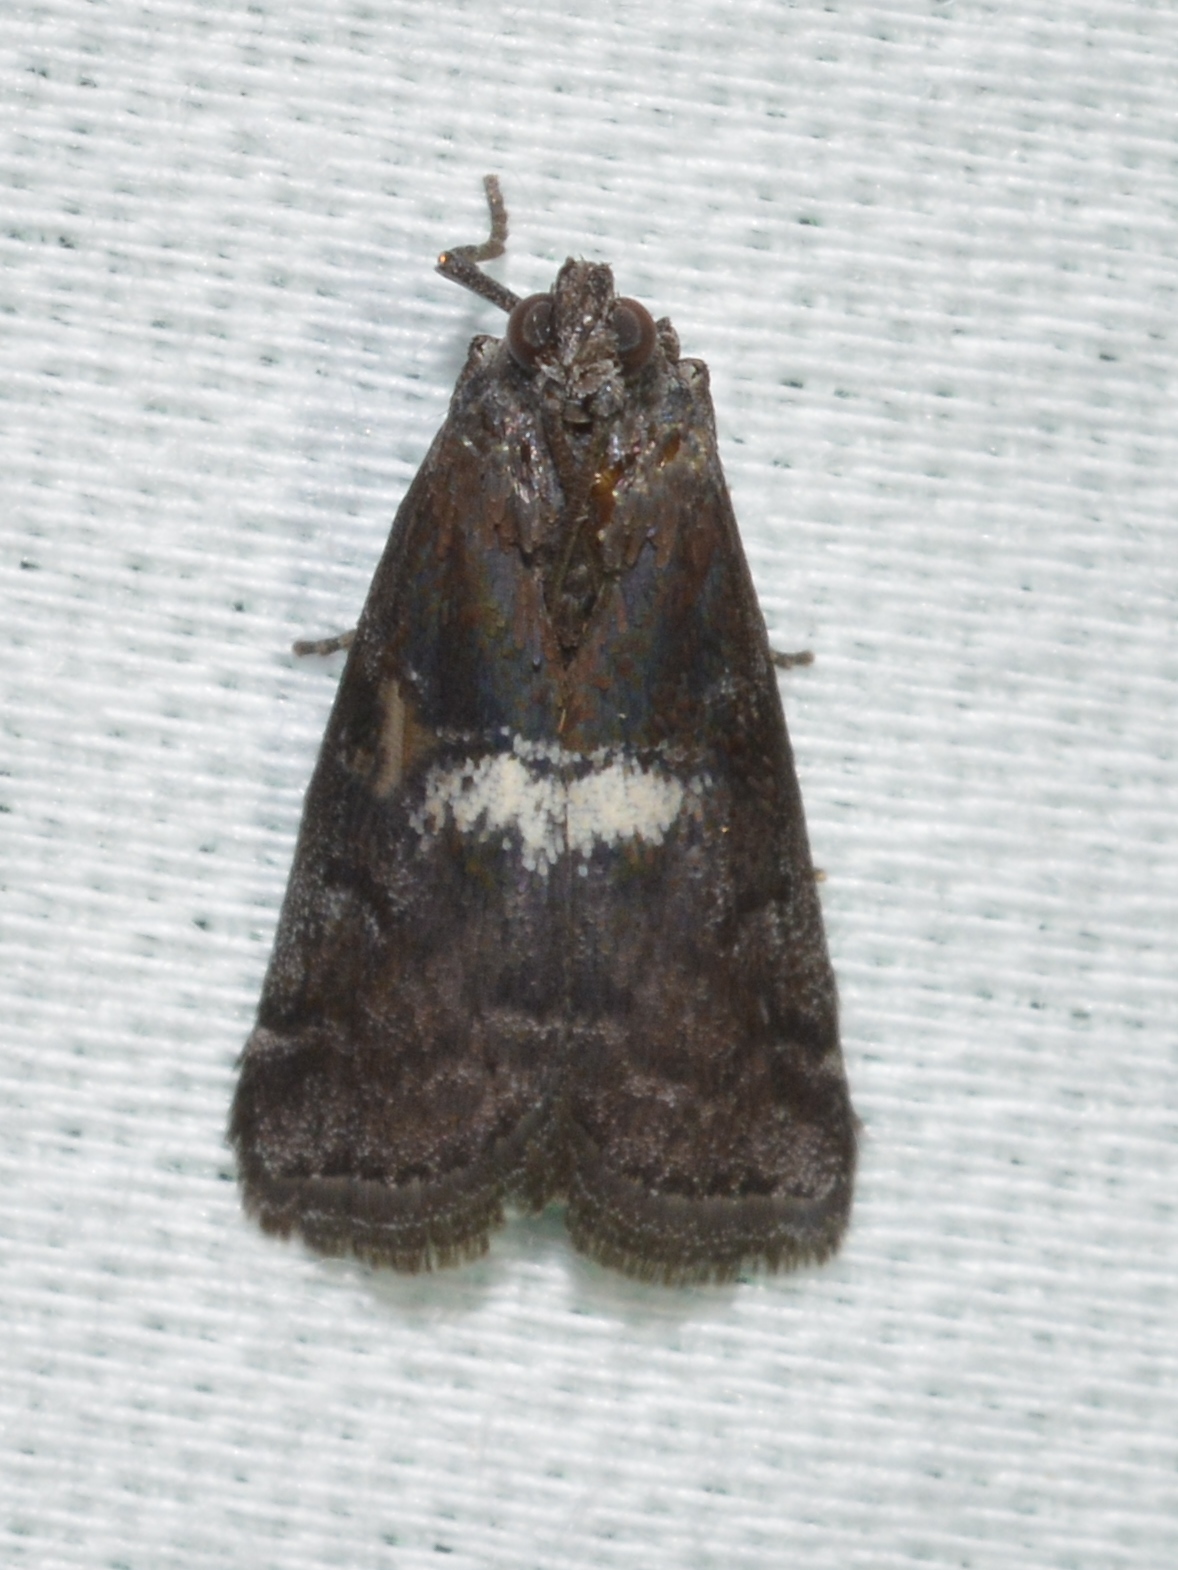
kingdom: Animalia
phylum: Arthropoda
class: Insecta
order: Lepidoptera
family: Pyralidae
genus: Salebriaria
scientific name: Salebriaria engeli
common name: Engel's salebriaria moth
